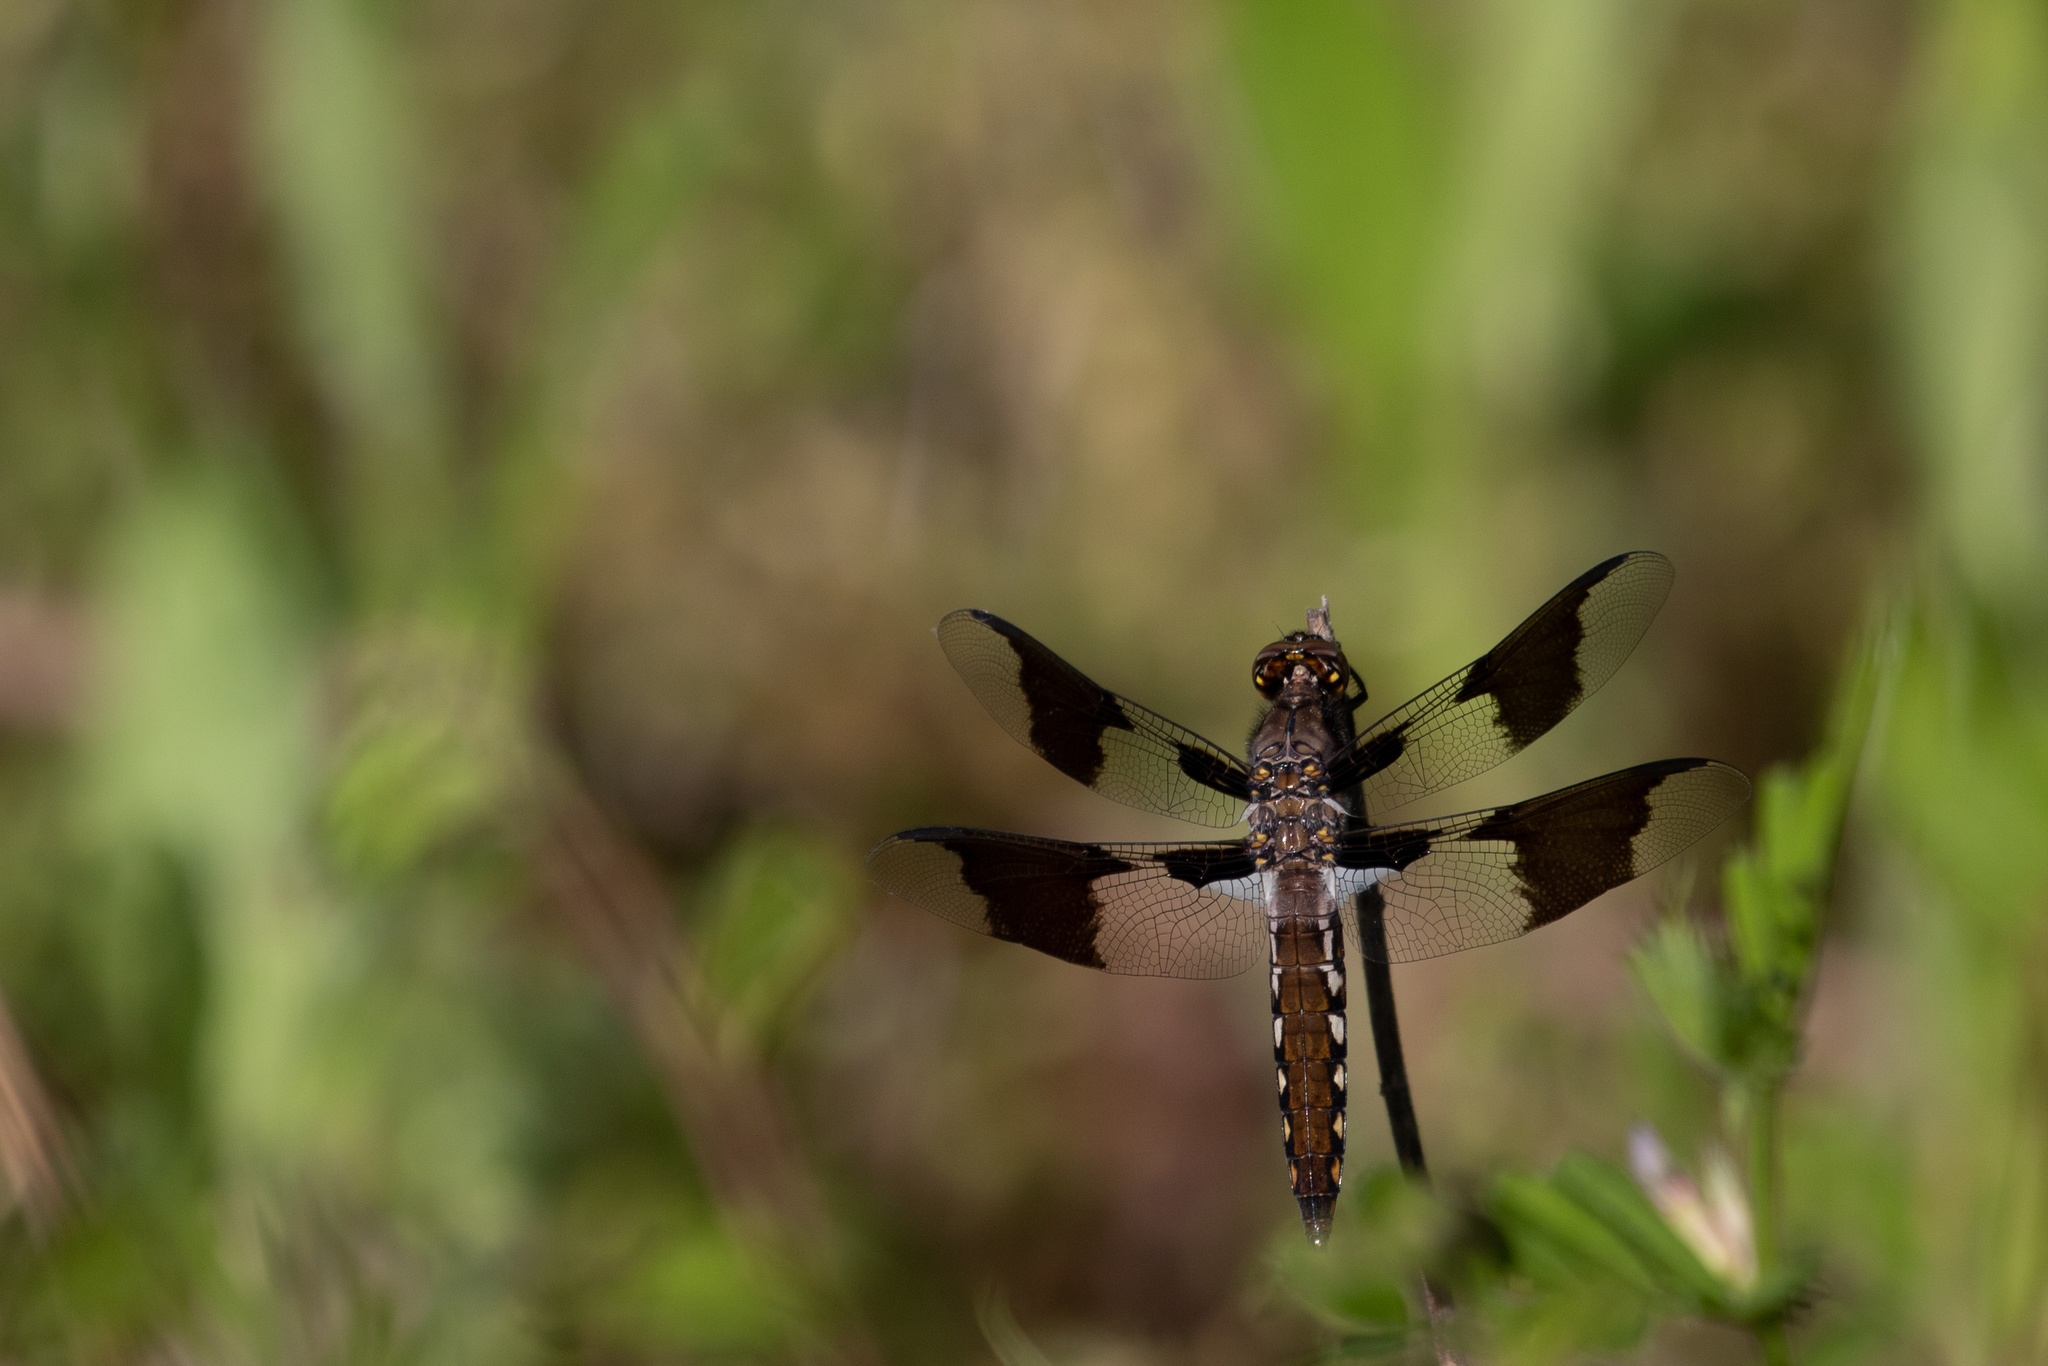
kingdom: Animalia
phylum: Arthropoda
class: Insecta
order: Odonata
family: Libellulidae
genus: Plathemis
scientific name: Plathemis lydia
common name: Common whitetail
